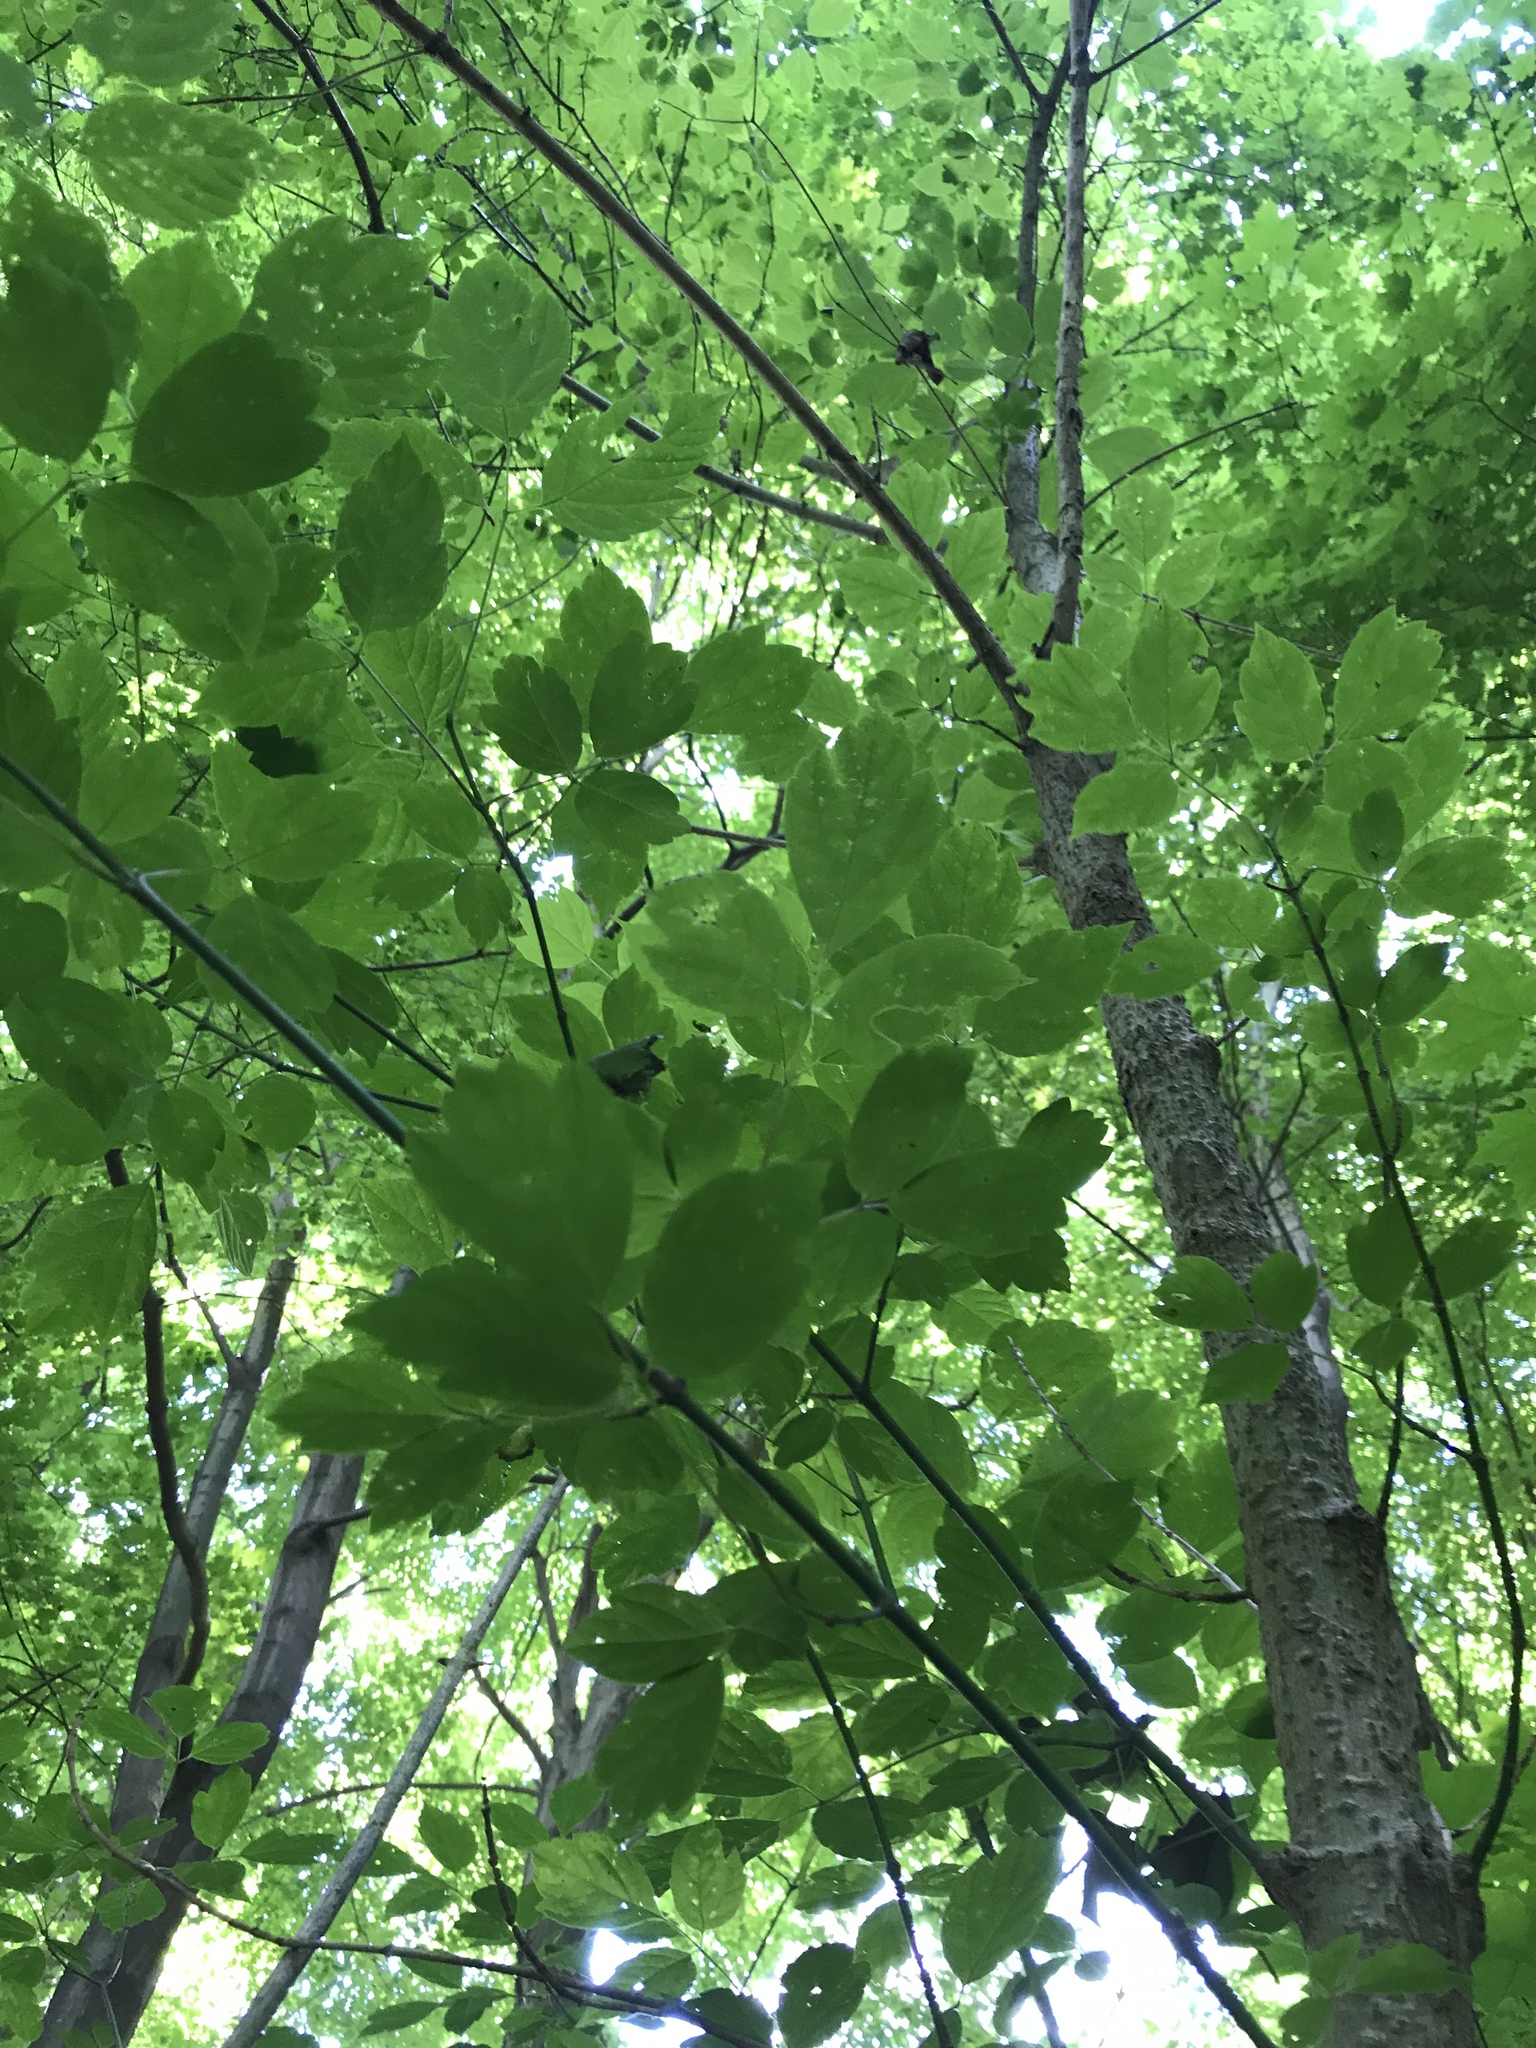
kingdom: Plantae
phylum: Tracheophyta
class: Magnoliopsida
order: Sapindales
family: Sapindaceae
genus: Acer
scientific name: Acer negundo
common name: Ashleaf maple
